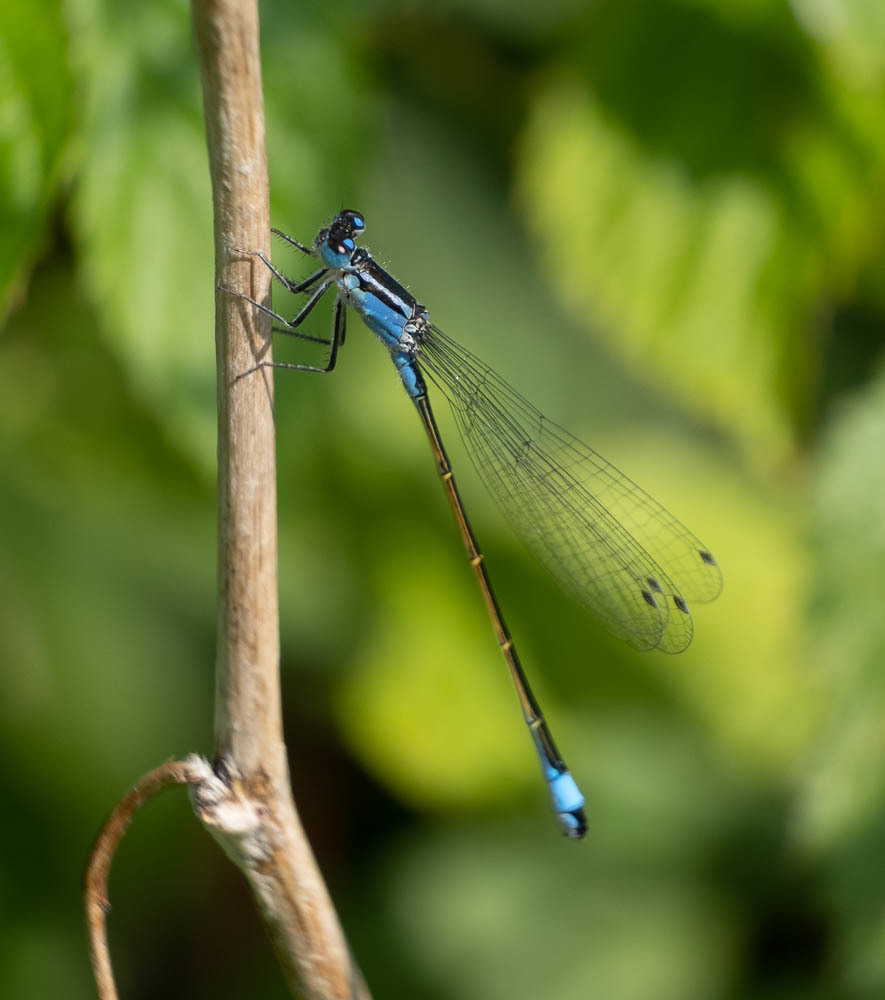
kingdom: Animalia
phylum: Arthropoda
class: Insecta
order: Odonata
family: Coenagrionidae
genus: Ischnura
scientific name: Ischnura elegans
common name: Blue-tailed damselfly
